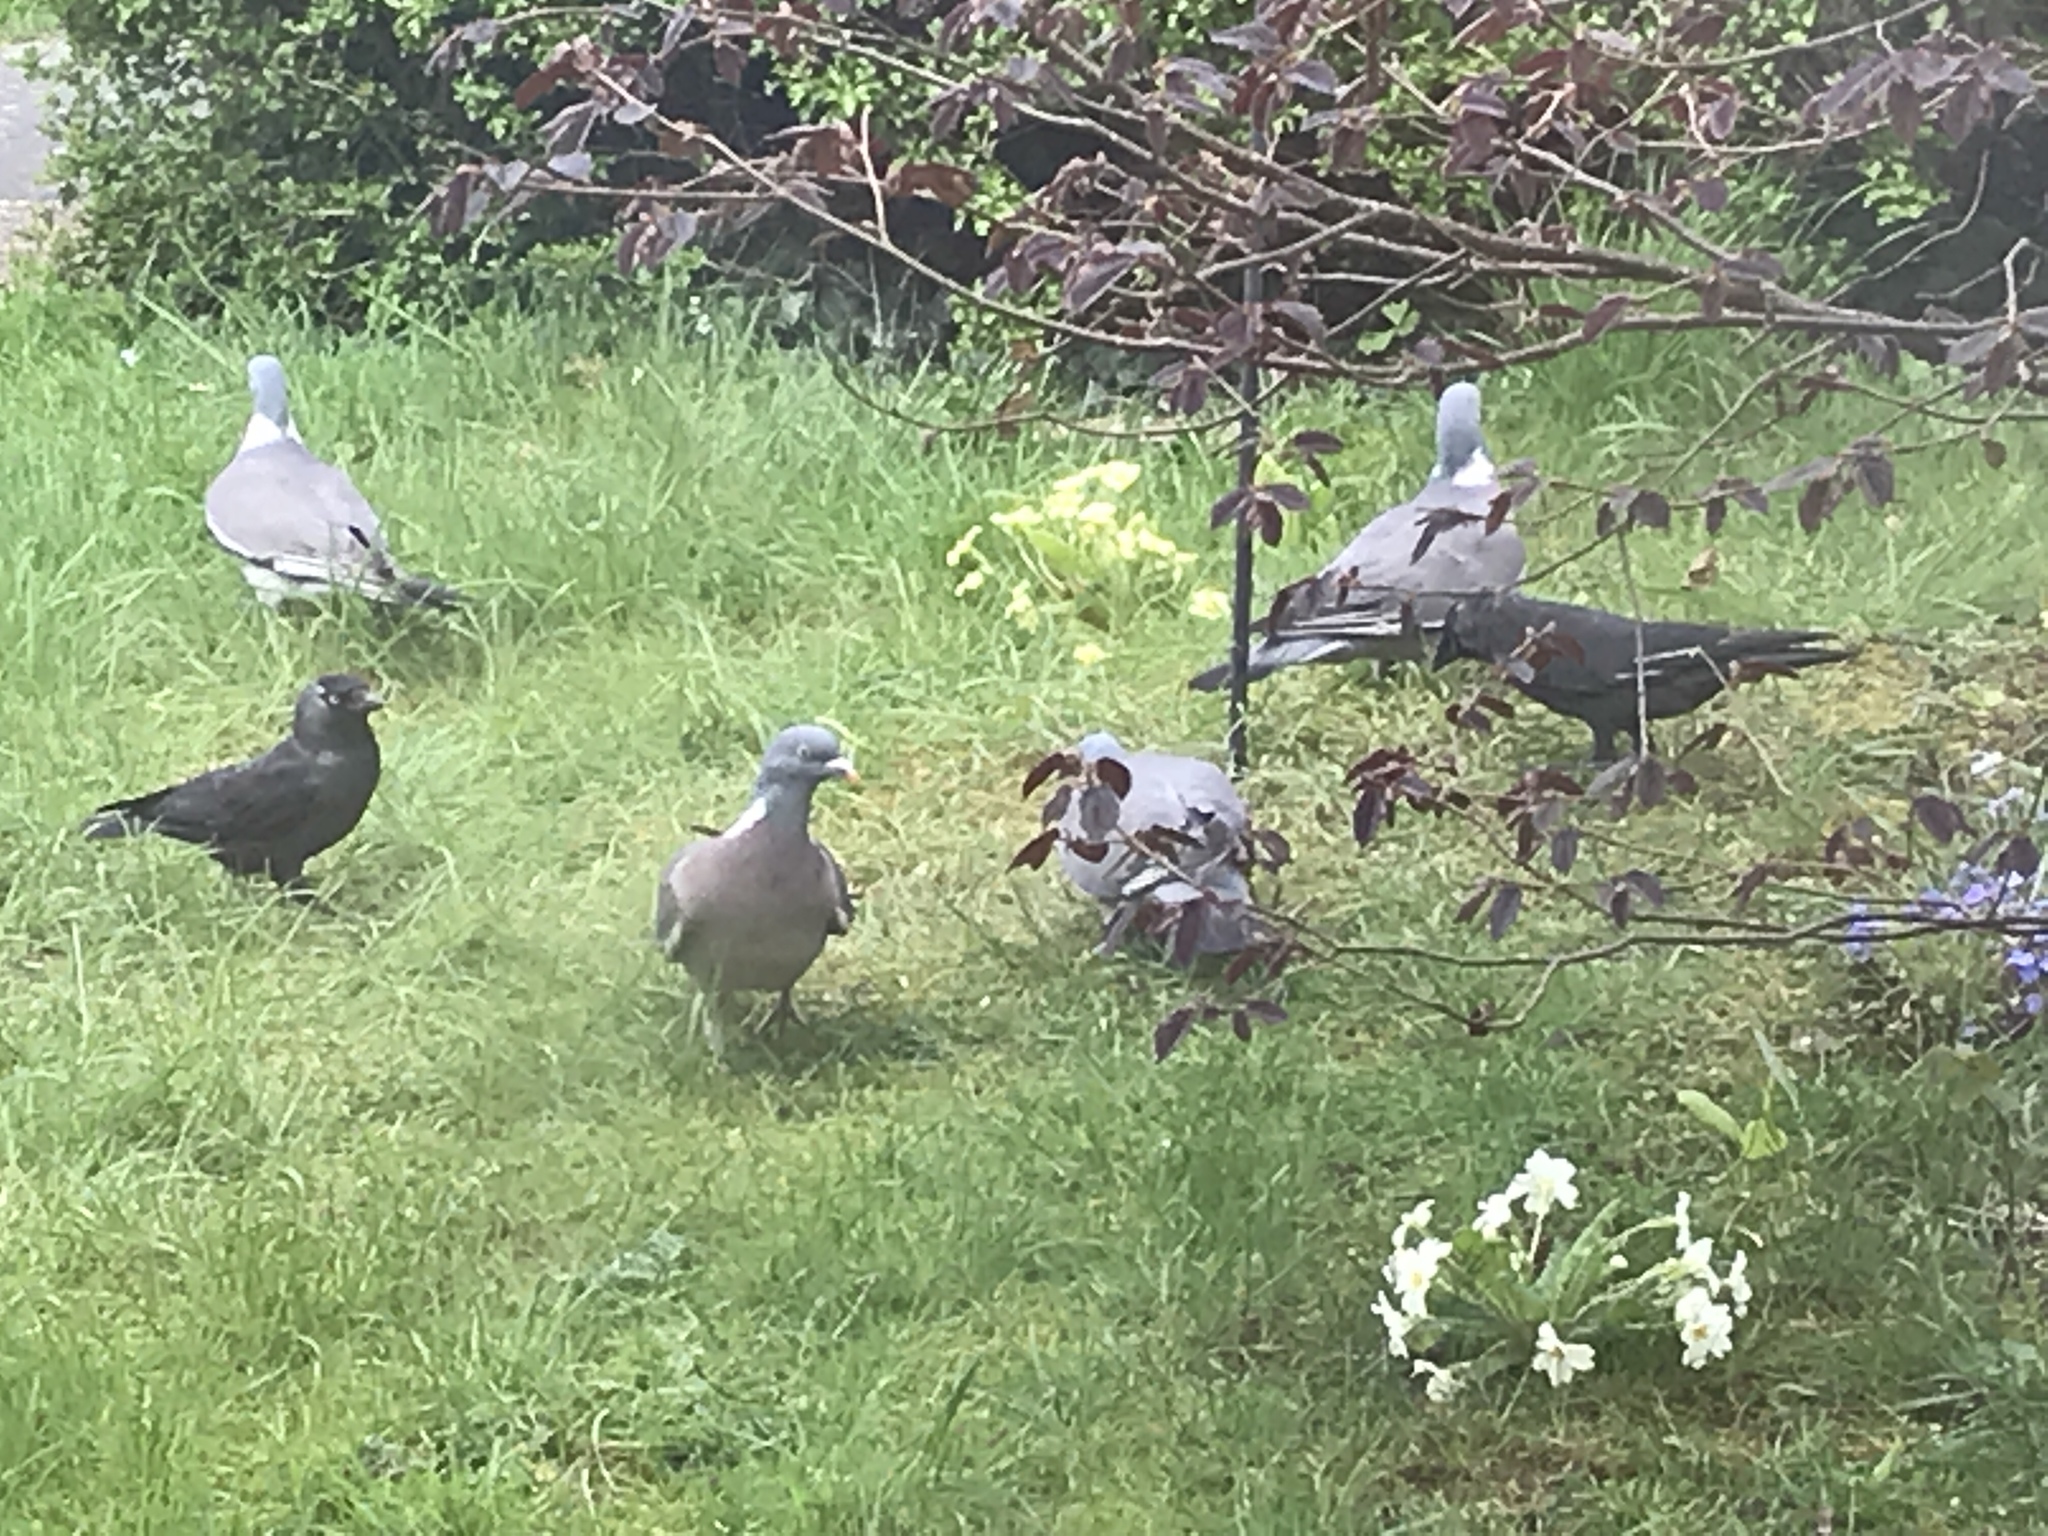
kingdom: Animalia
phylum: Chordata
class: Aves
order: Passeriformes
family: Corvidae
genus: Coloeus
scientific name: Coloeus monedula
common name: Western jackdaw
